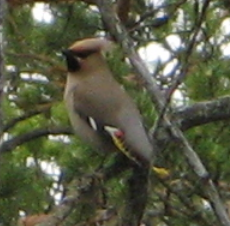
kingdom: Animalia
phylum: Chordata
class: Aves
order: Passeriformes
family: Bombycillidae
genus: Bombycilla
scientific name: Bombycilla garrulus
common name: Bohemian waxwing
